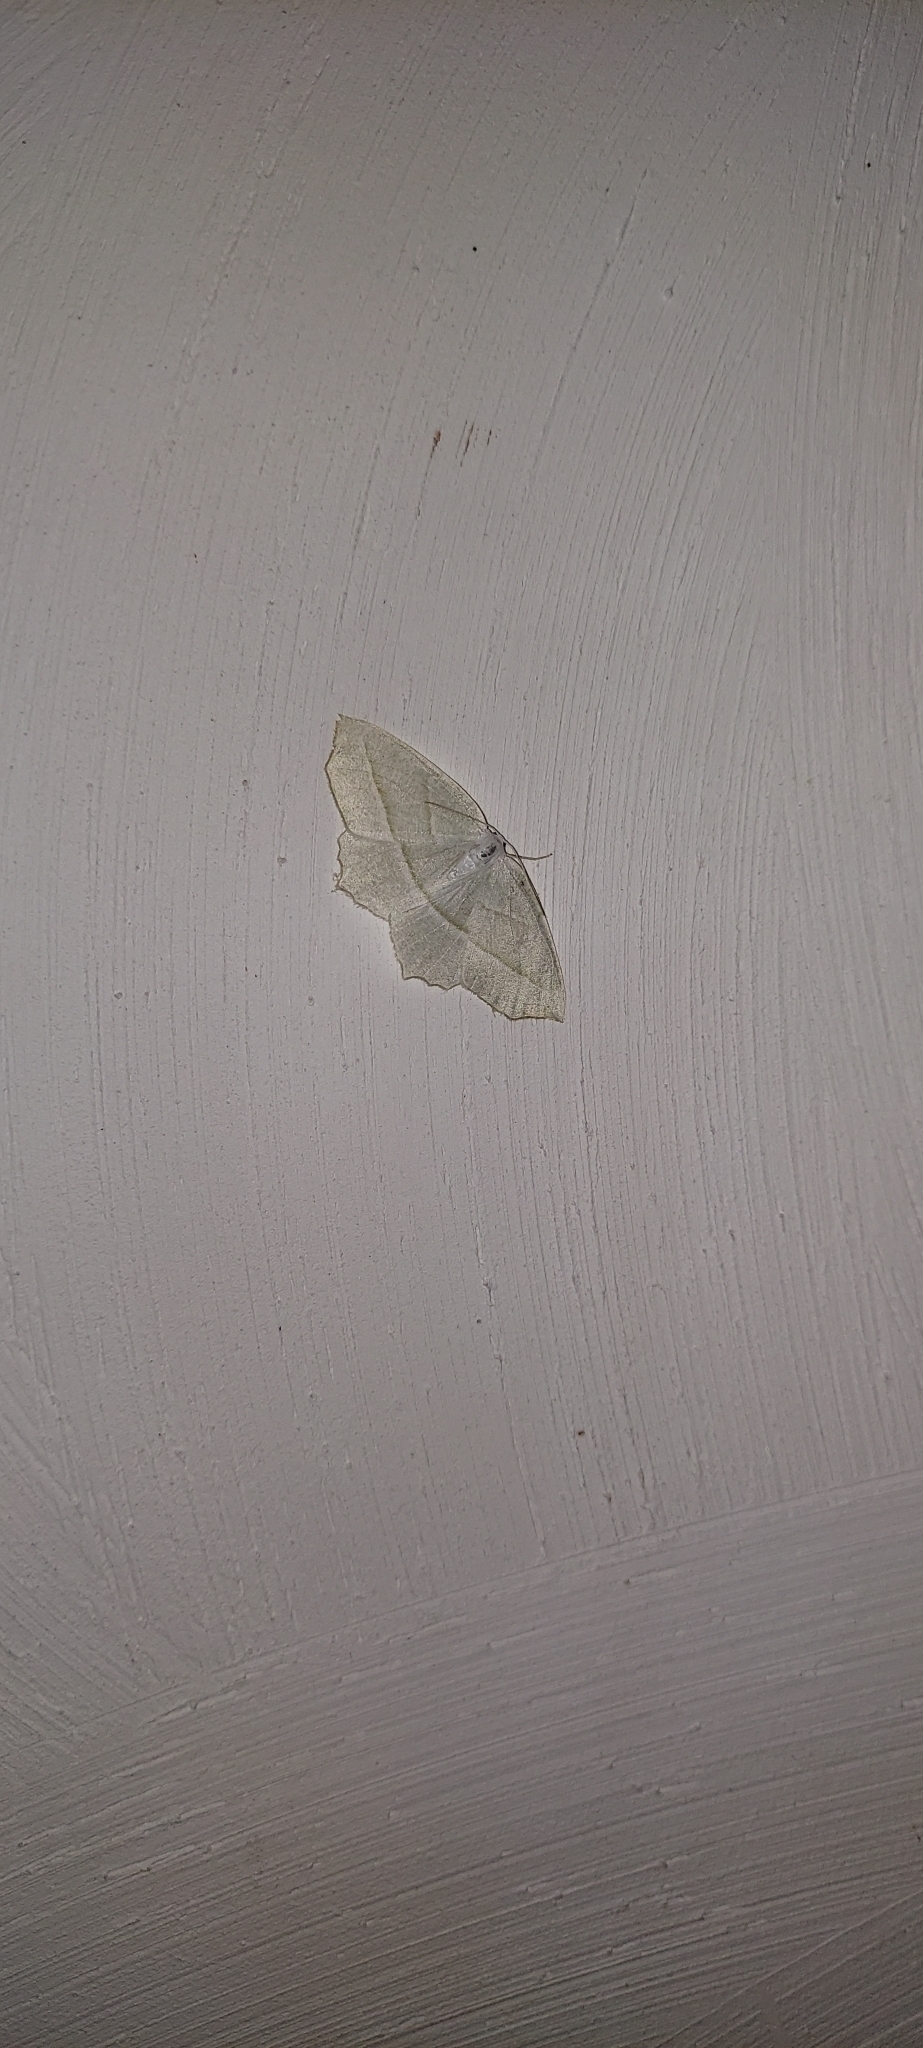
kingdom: Animalia
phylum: Arthropoda
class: Insecta
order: Lepidoptera
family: Geometridae
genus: Campaea
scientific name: Campaea perlata
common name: Fringed looper
